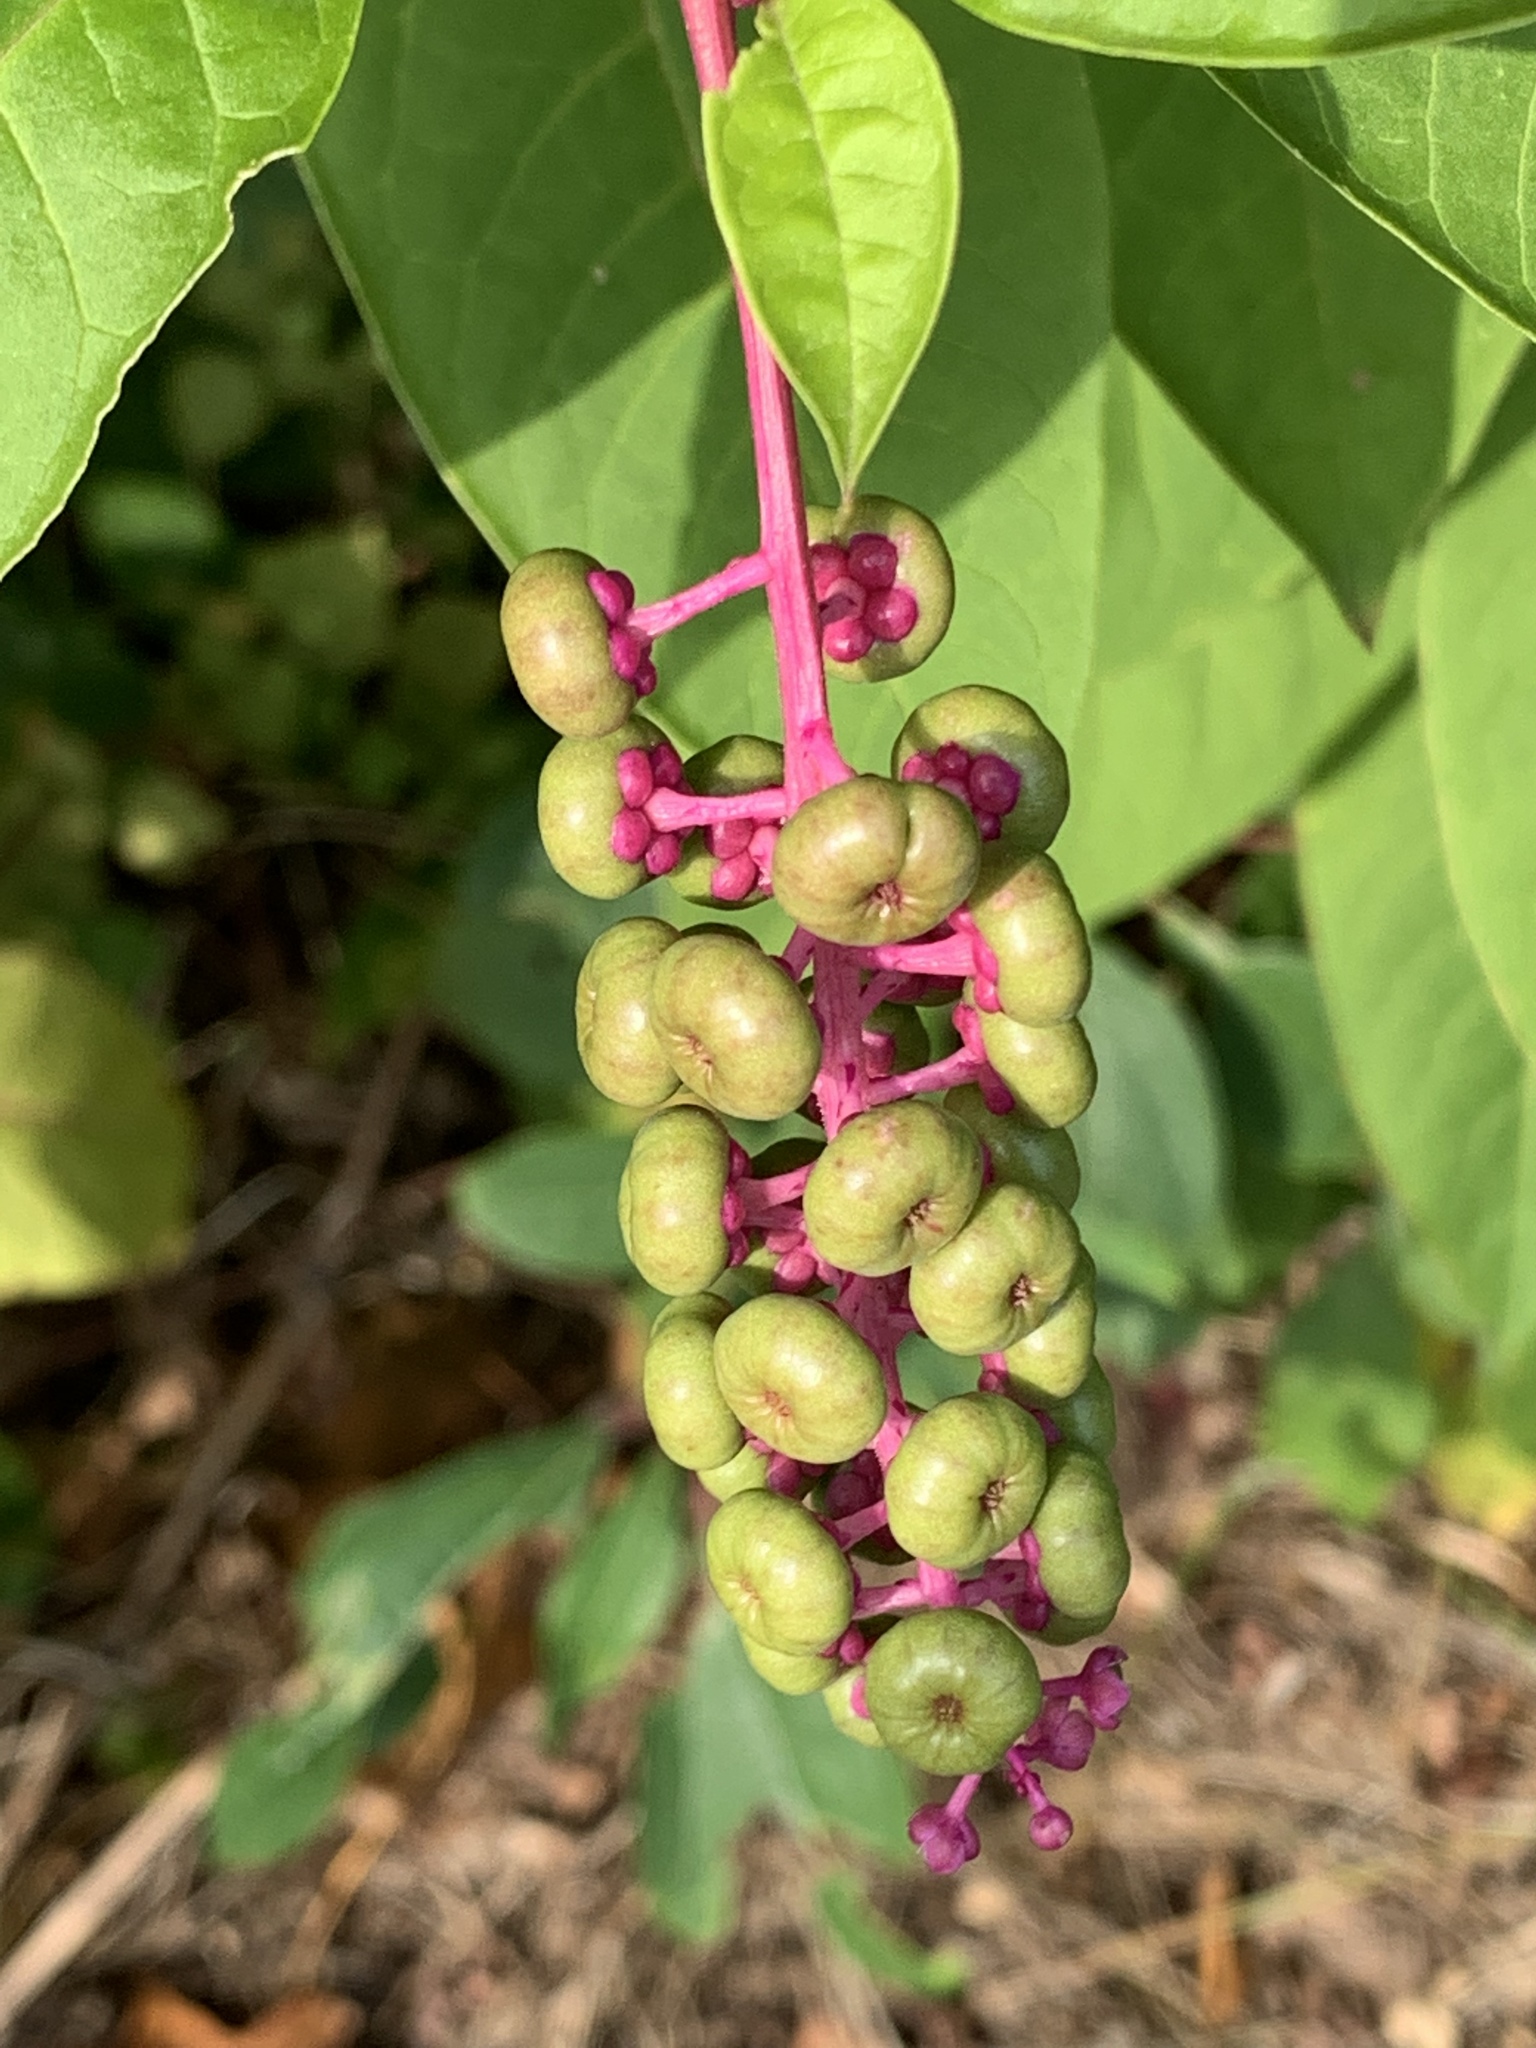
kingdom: Plantae
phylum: Tracheophyta
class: Magnoliopsida
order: Caryophyllales
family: Phytolaccaceae
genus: Phytolacca
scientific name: Phytolacca americana
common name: American pokeweed
